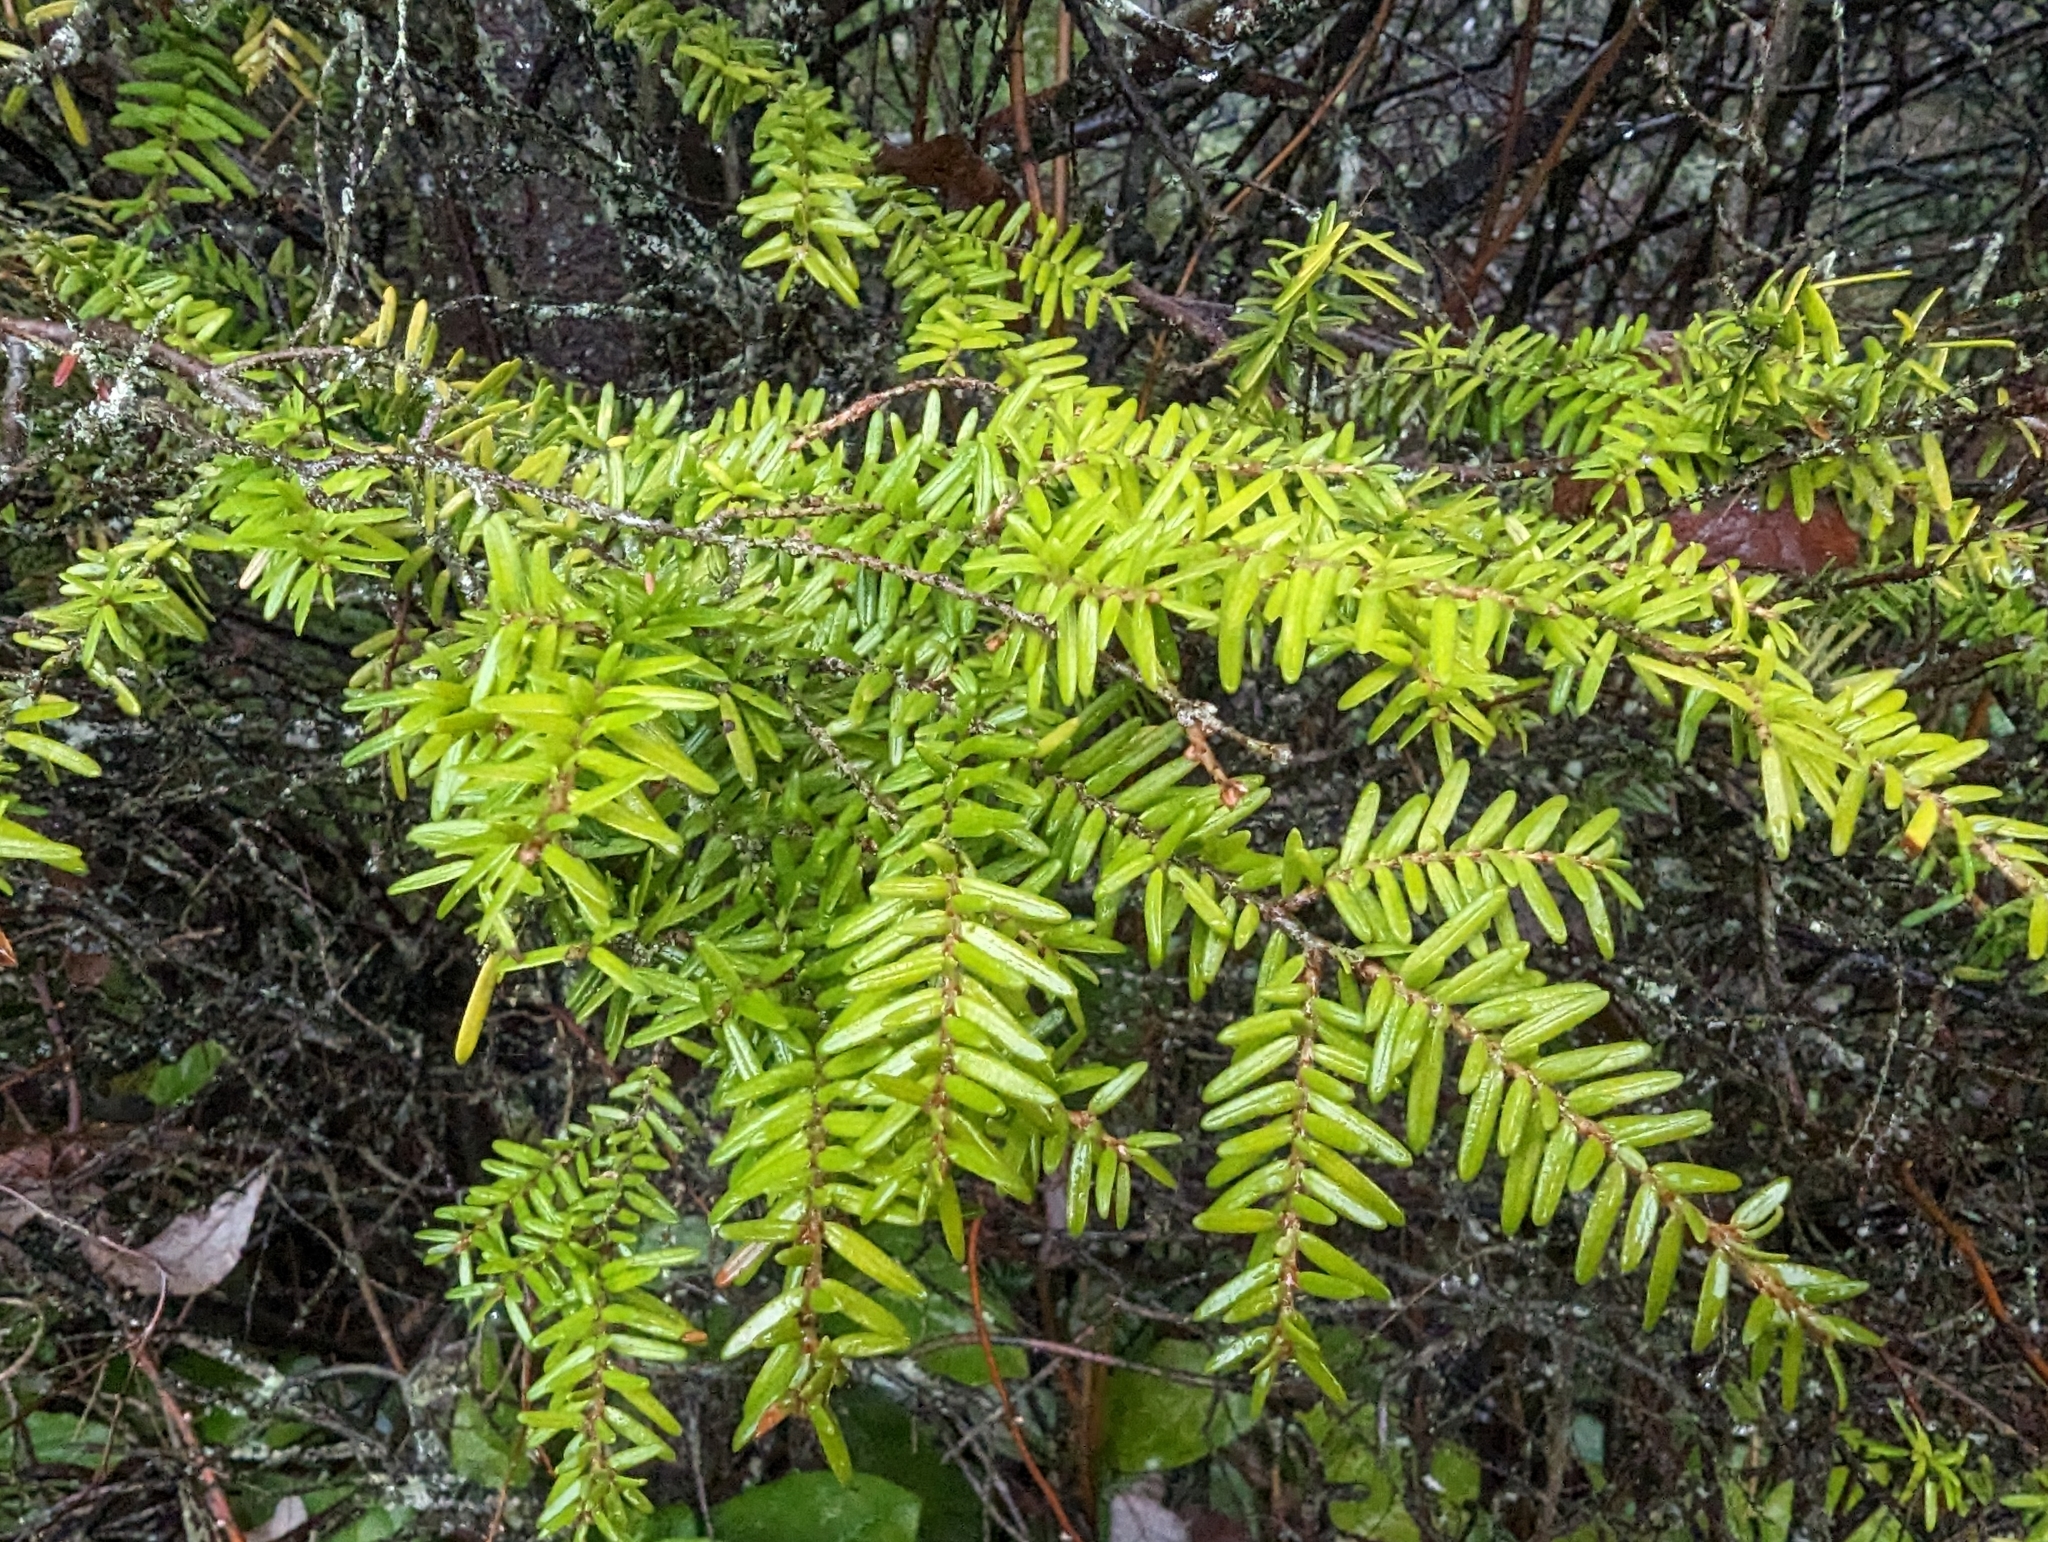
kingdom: Plantae
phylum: Tracheophyta
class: Pinopsida
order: Pinales
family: Pinaceae
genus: Tsuga
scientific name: Tsuga heterophylla
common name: Western hemlock
